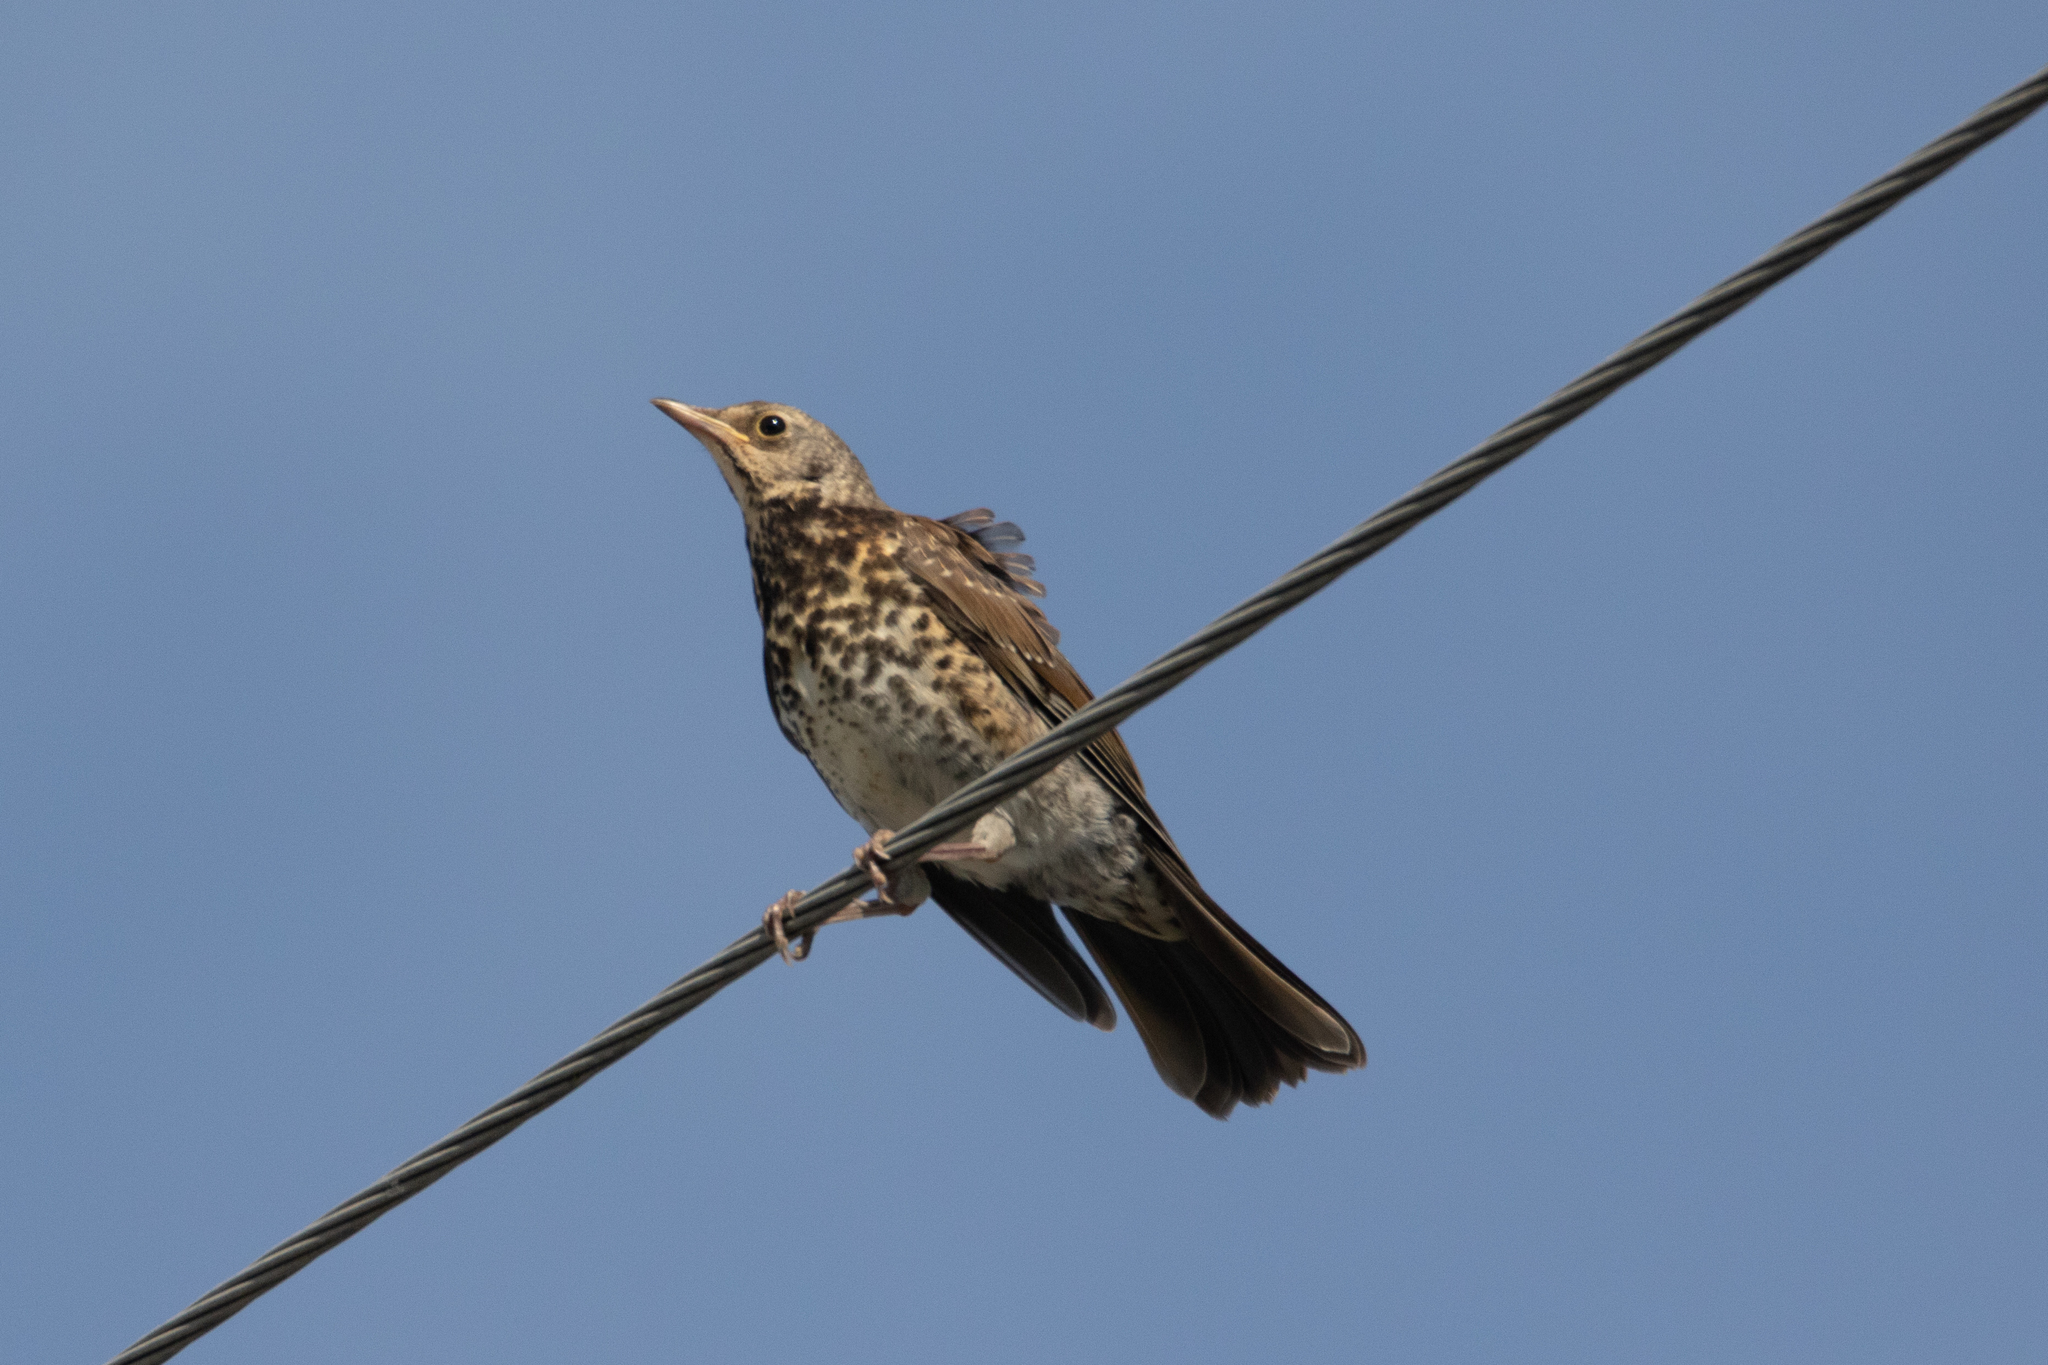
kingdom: Animalia
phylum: Chordata
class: Aves
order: Passeriformes
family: Turdidae
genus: Turdus
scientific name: Turdus pilaris
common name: Fieldfare
